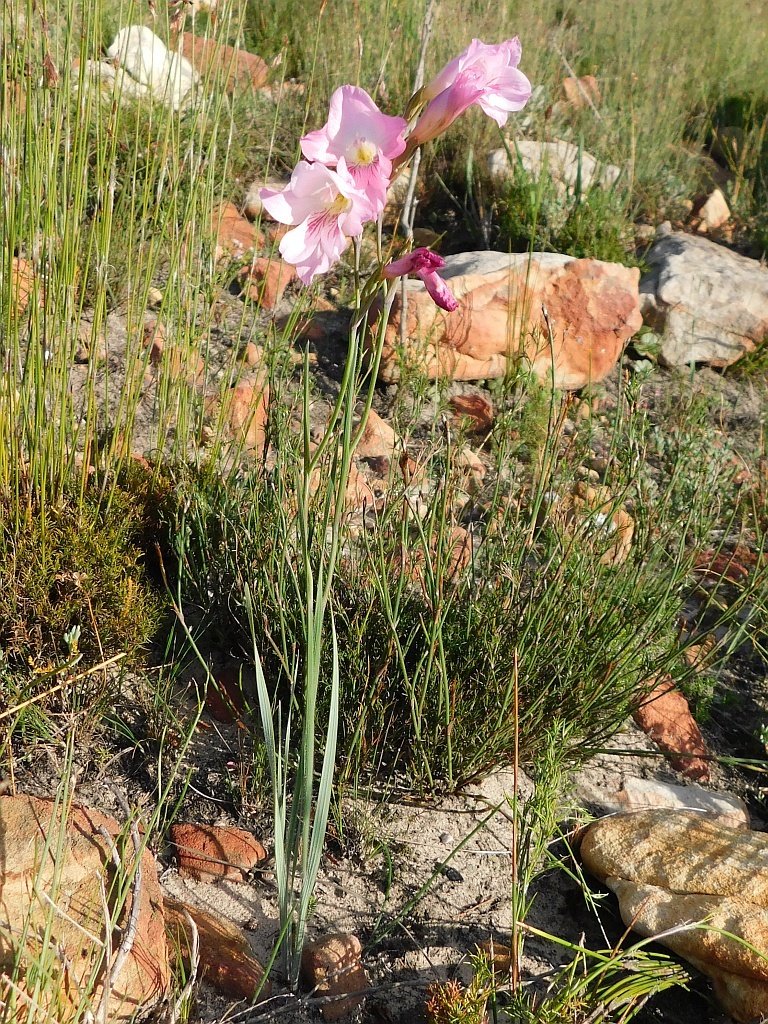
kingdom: Plantae
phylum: Tracheophyta
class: Liliopsida
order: Asparagales
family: Iridaceae
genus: Gladiolus
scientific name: Gladiolus hirsutus
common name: Small pink afrikaner
